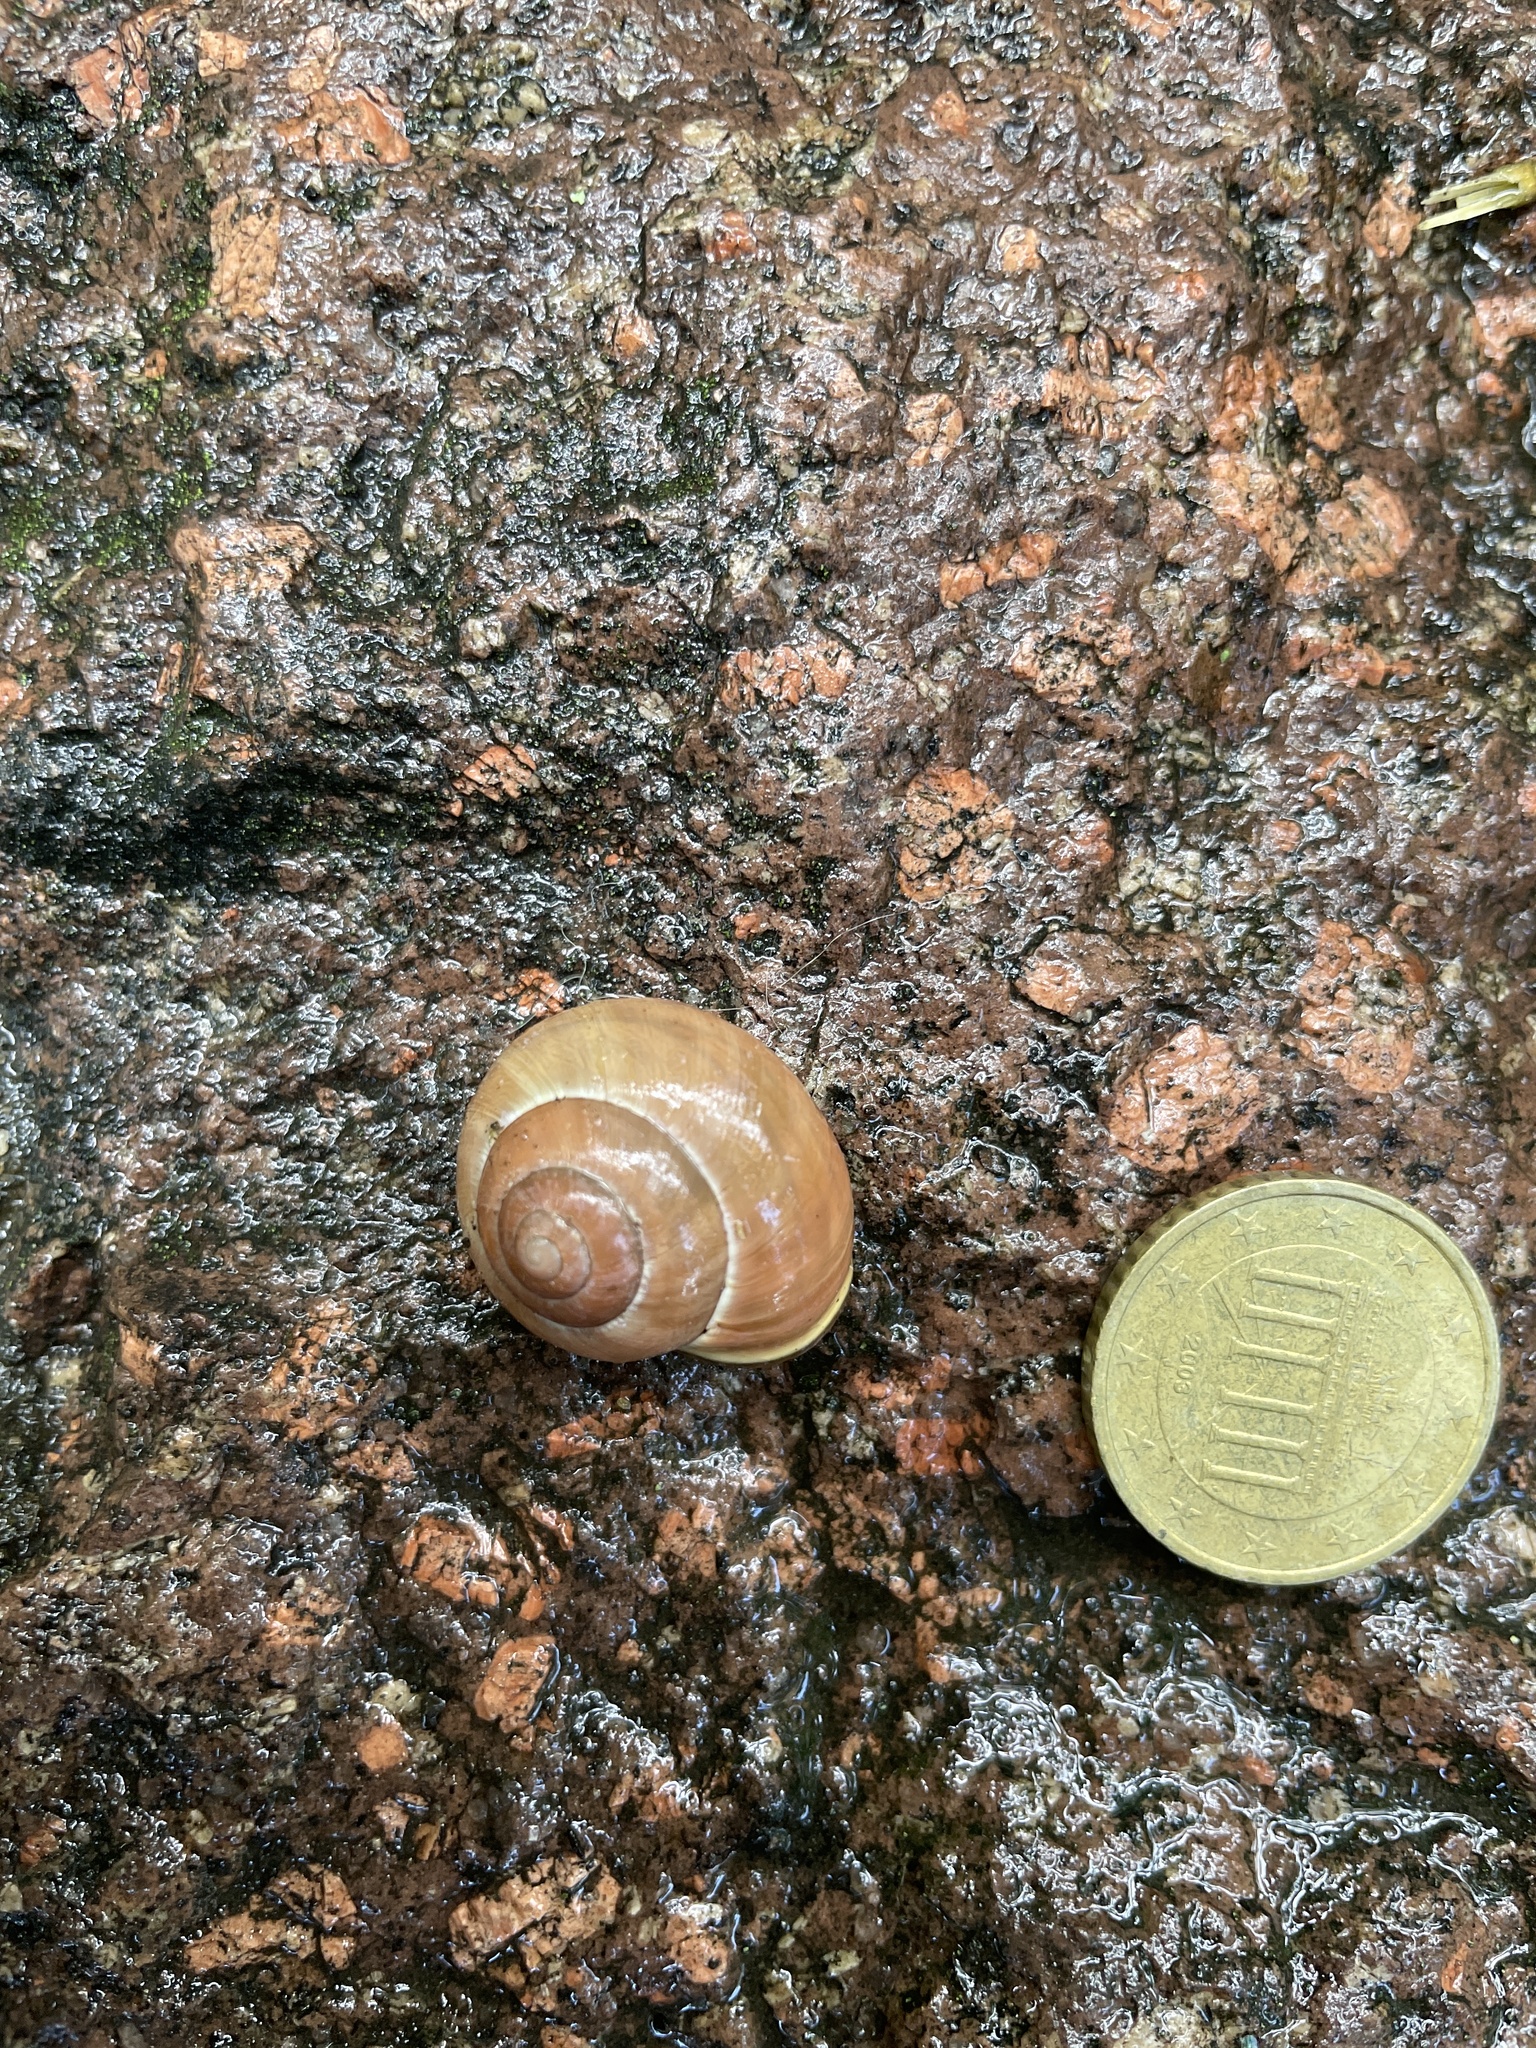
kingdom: Animalia
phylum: Mollusca
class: Gastropoda
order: Stylommatophora
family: Helicidae
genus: Cepaea
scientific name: Cepaea nemoralis
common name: Grovesnail
